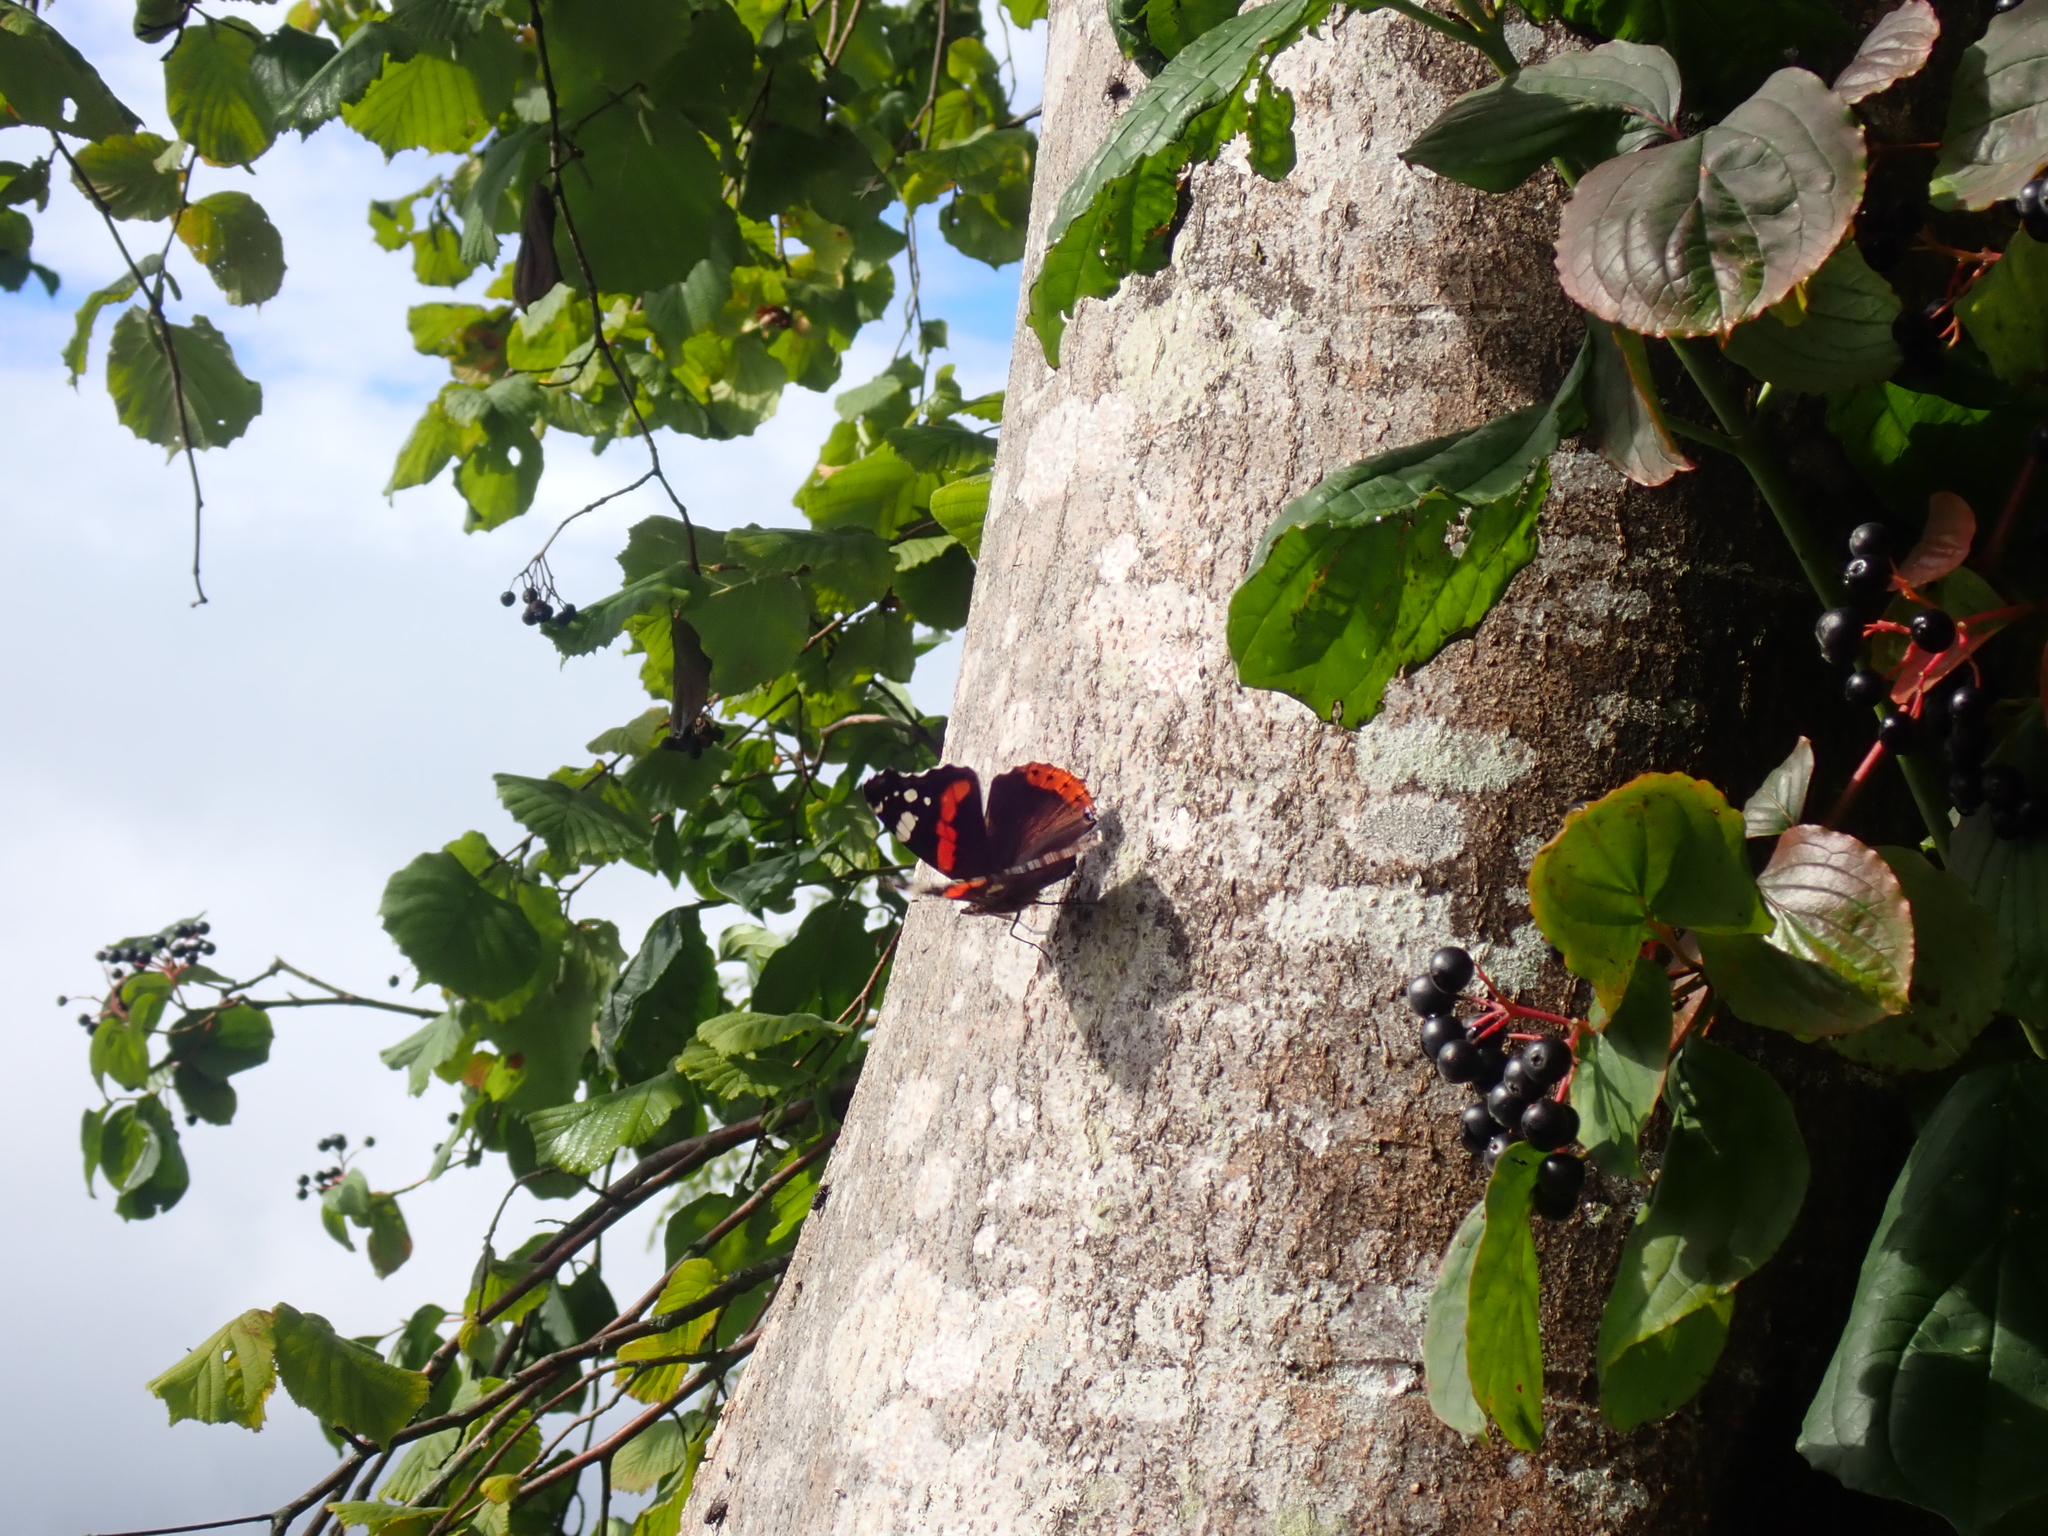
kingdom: Animalia
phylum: Arthropoda
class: Insecta
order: Lepidoptera
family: Nymphalidae
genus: Vanessa
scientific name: Vanessa atalanta
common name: Red admiral
